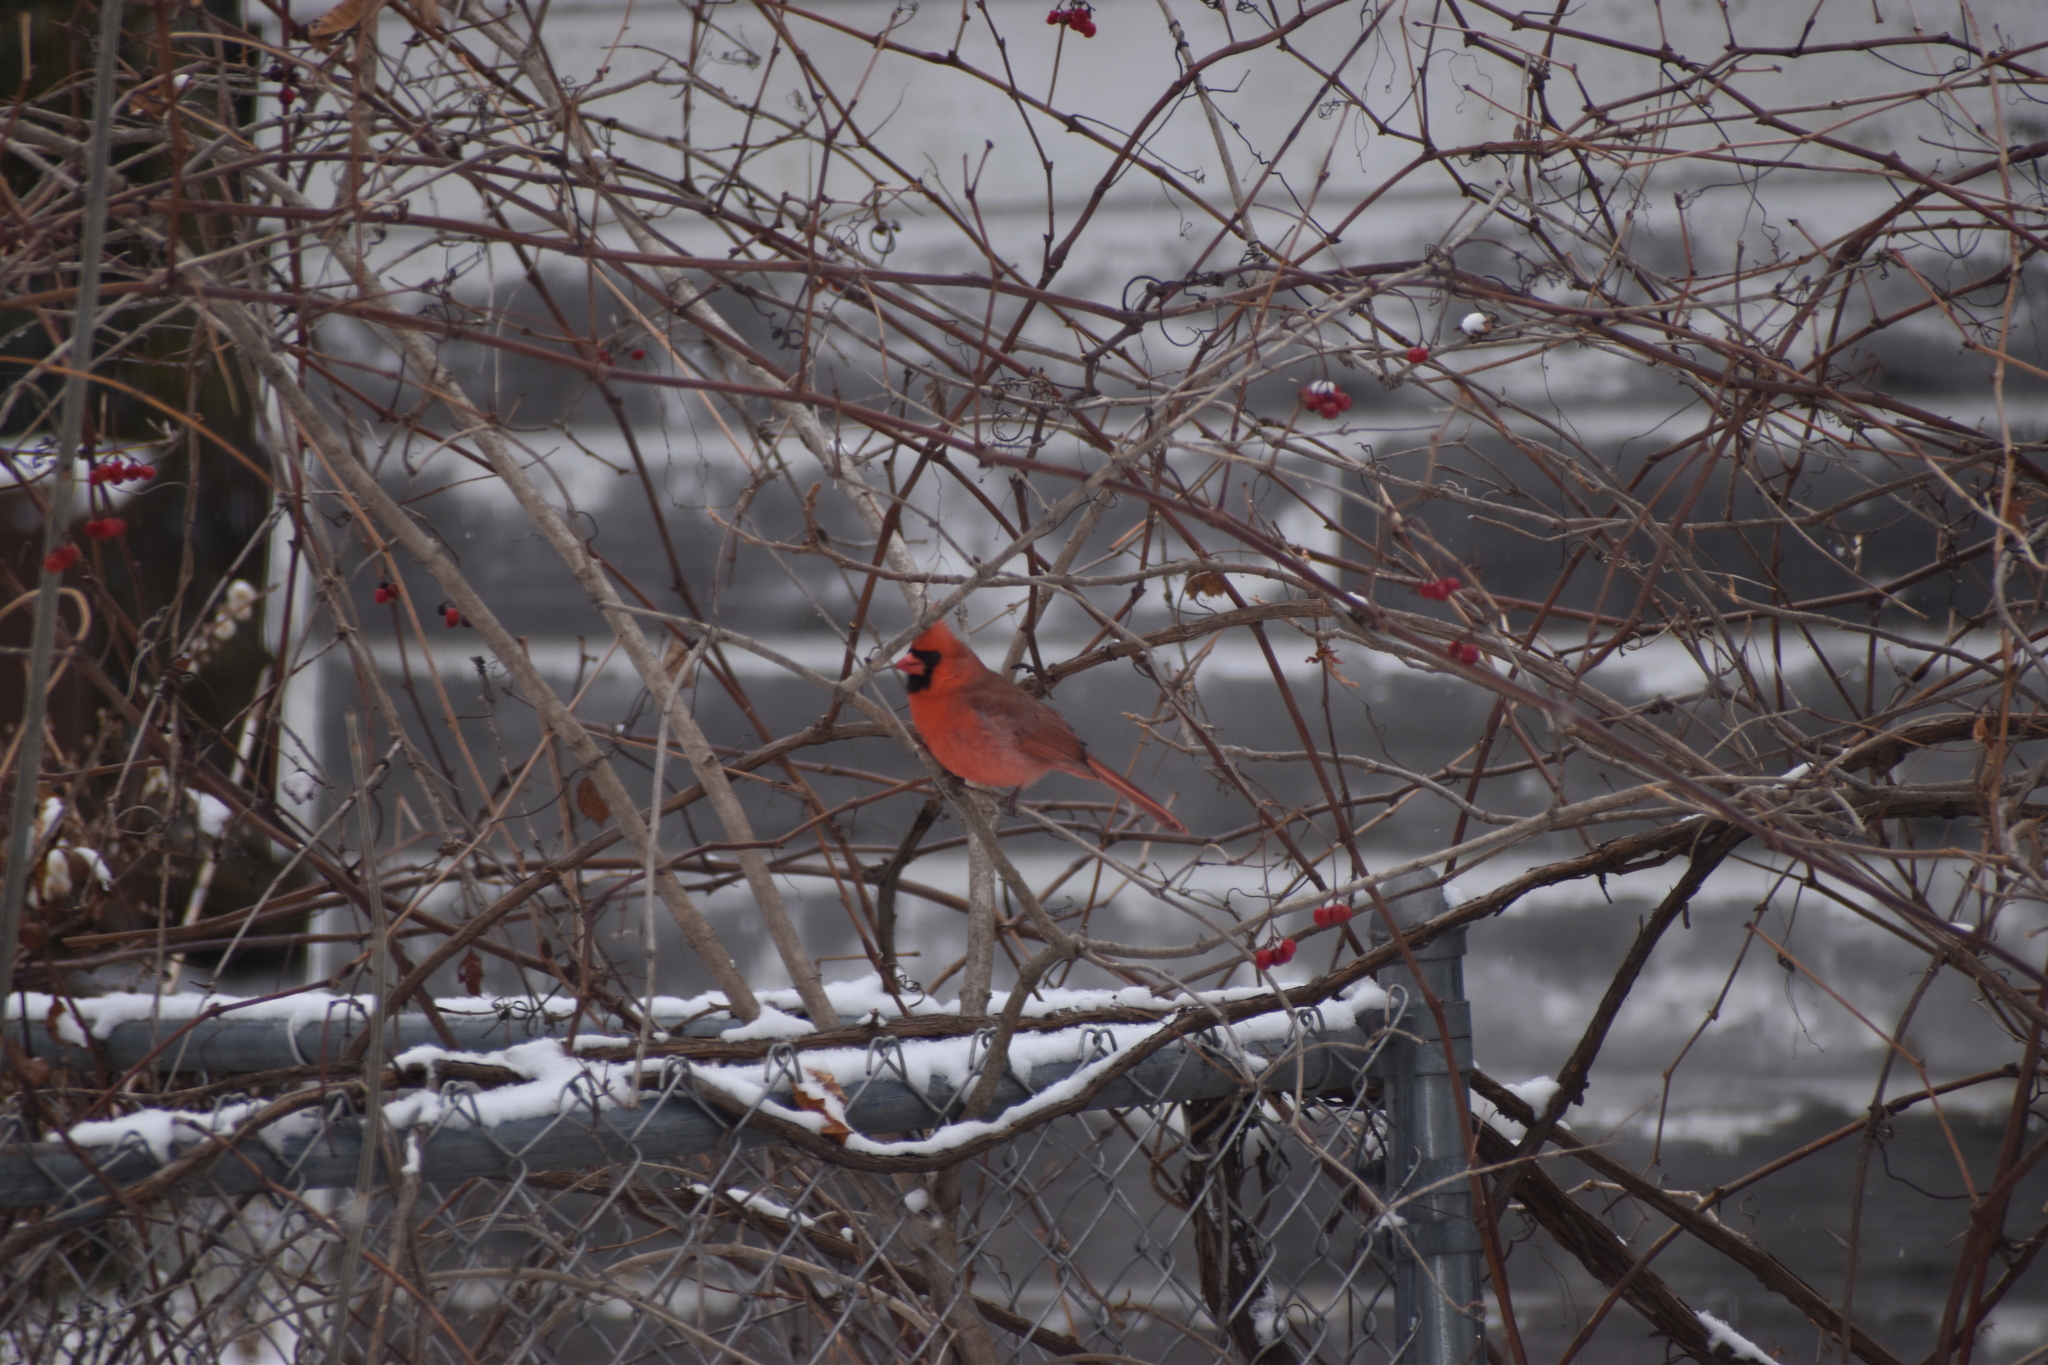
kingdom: Animalia
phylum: Chordata
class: Aves
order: Passeriformes
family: Cardinalidae
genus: Cardinalis
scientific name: Cardinalis cardinalis
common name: Northern cardinal
